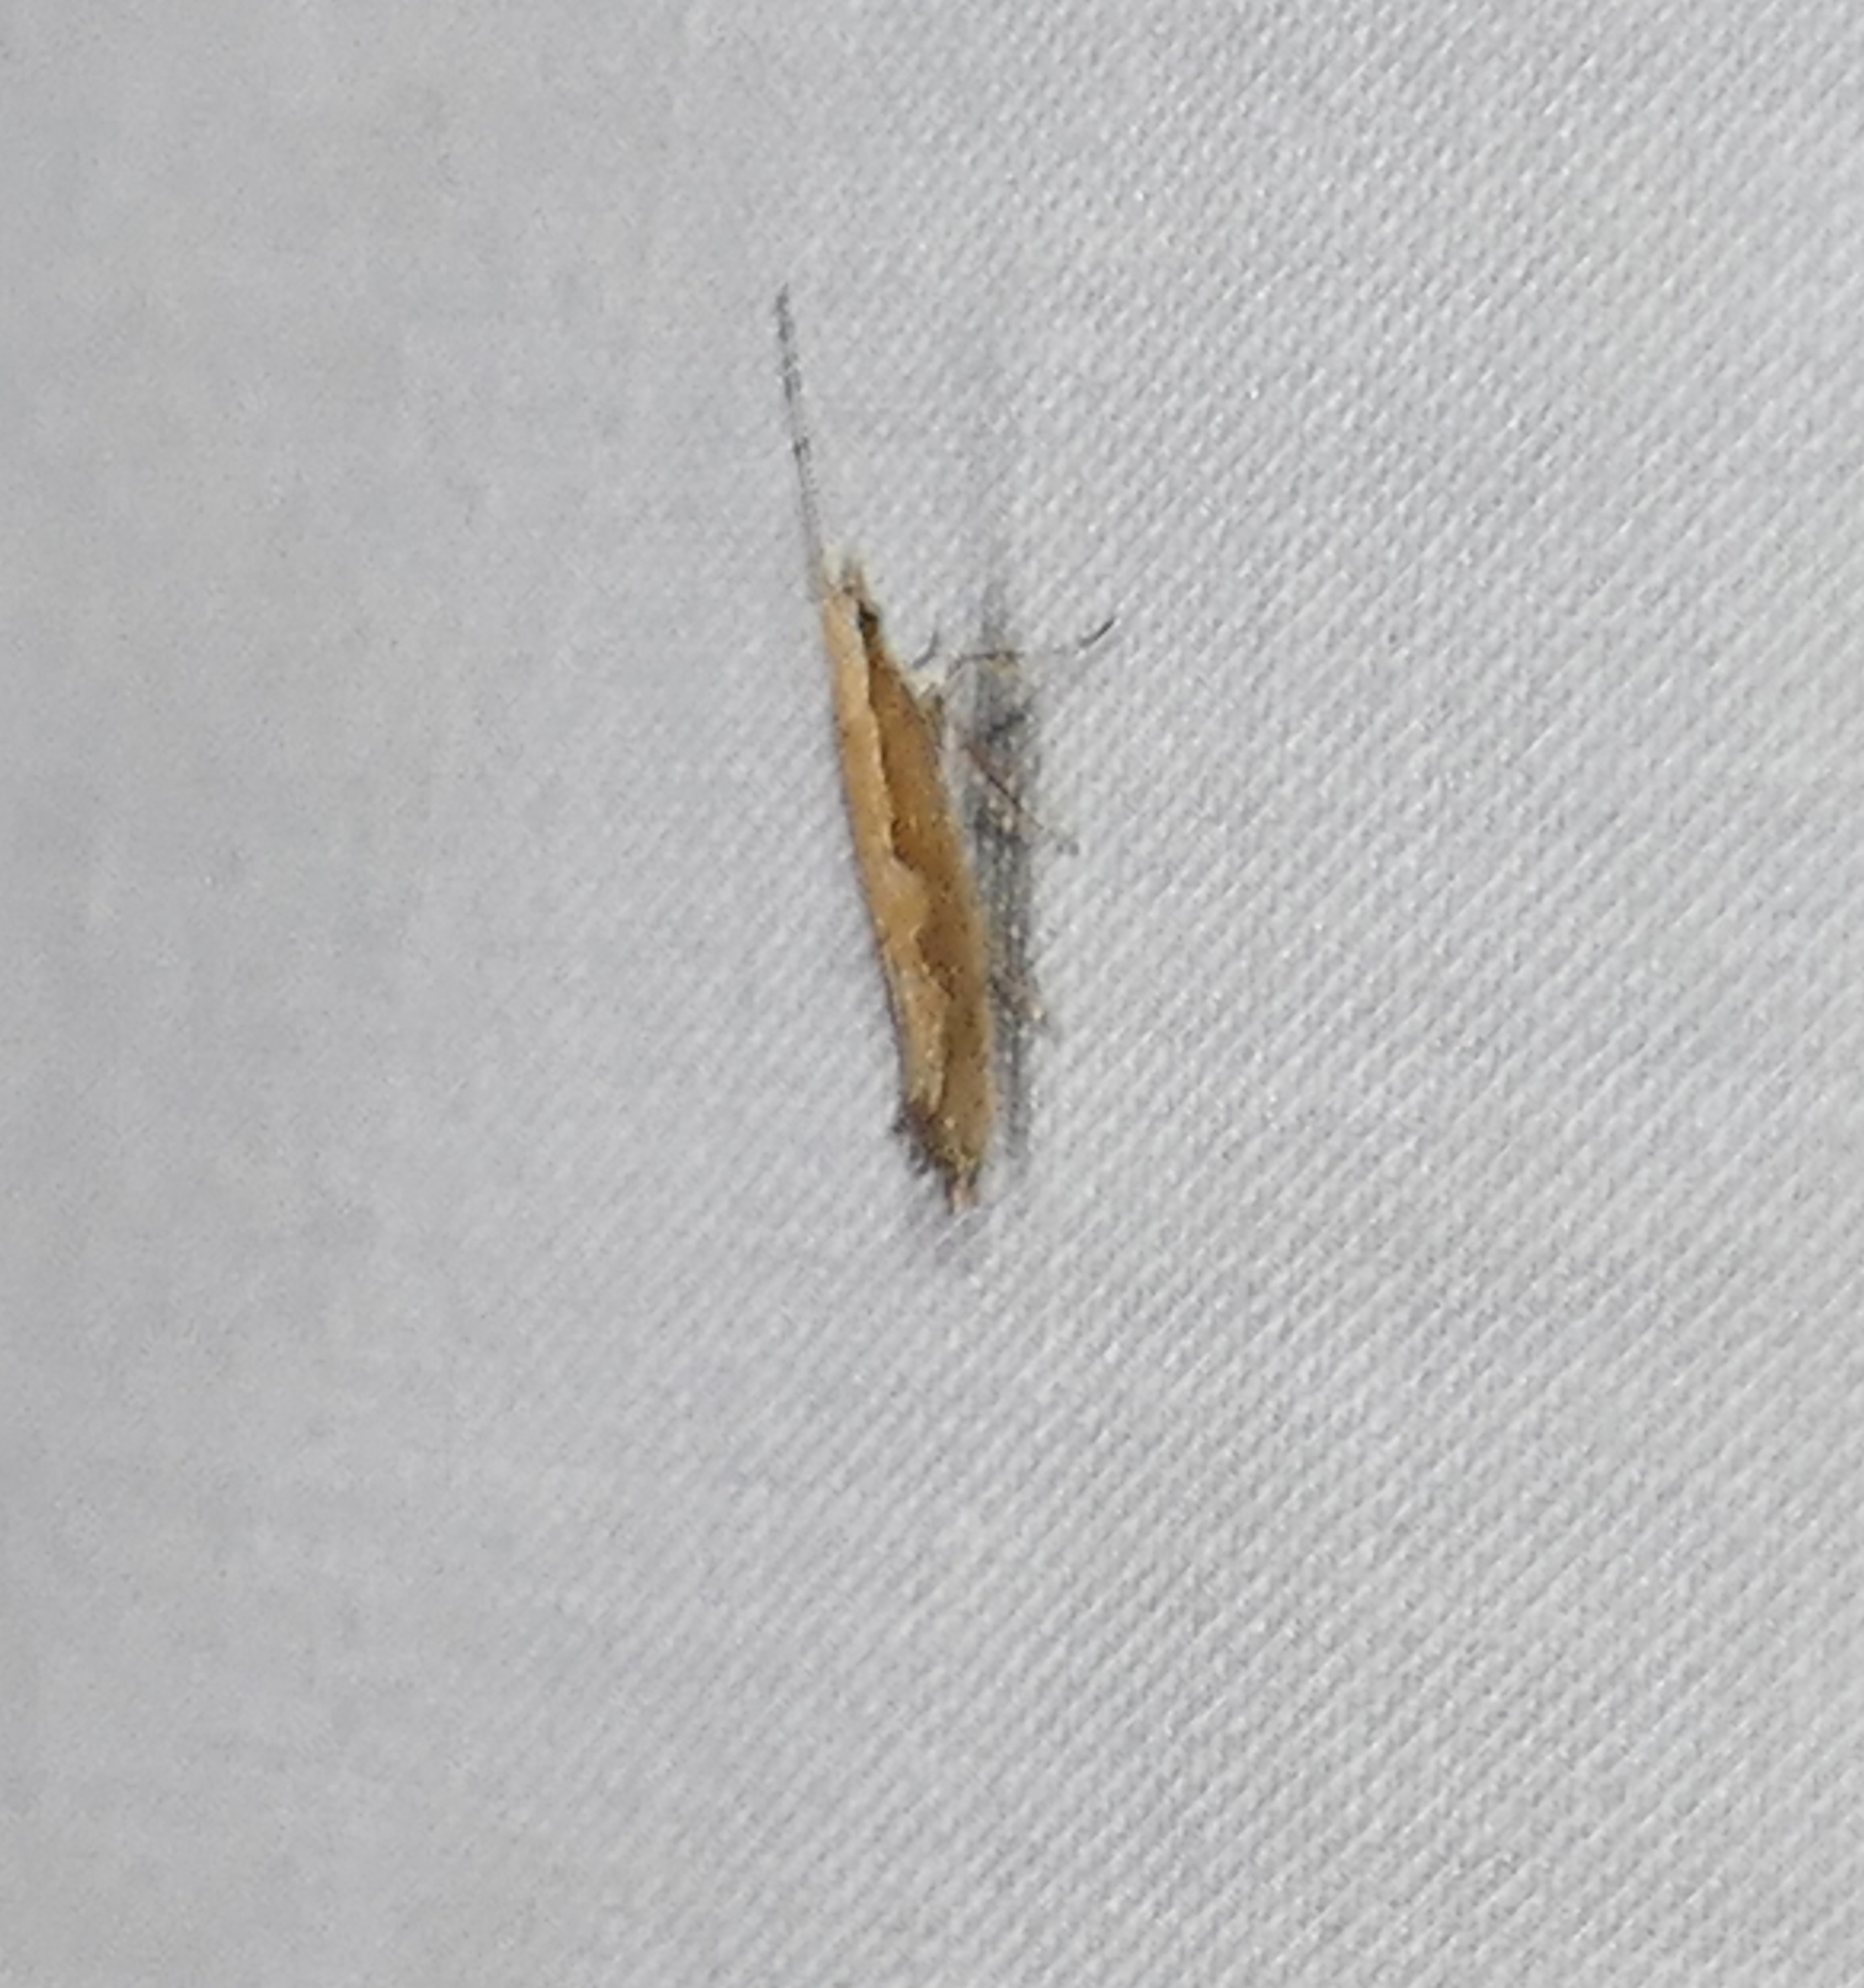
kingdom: Animalia
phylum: Arthropoda
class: Insecta
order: Lepidoptera
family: Plutellidae
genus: Plutella
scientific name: Plutella xylostella
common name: Diamond-back moth
